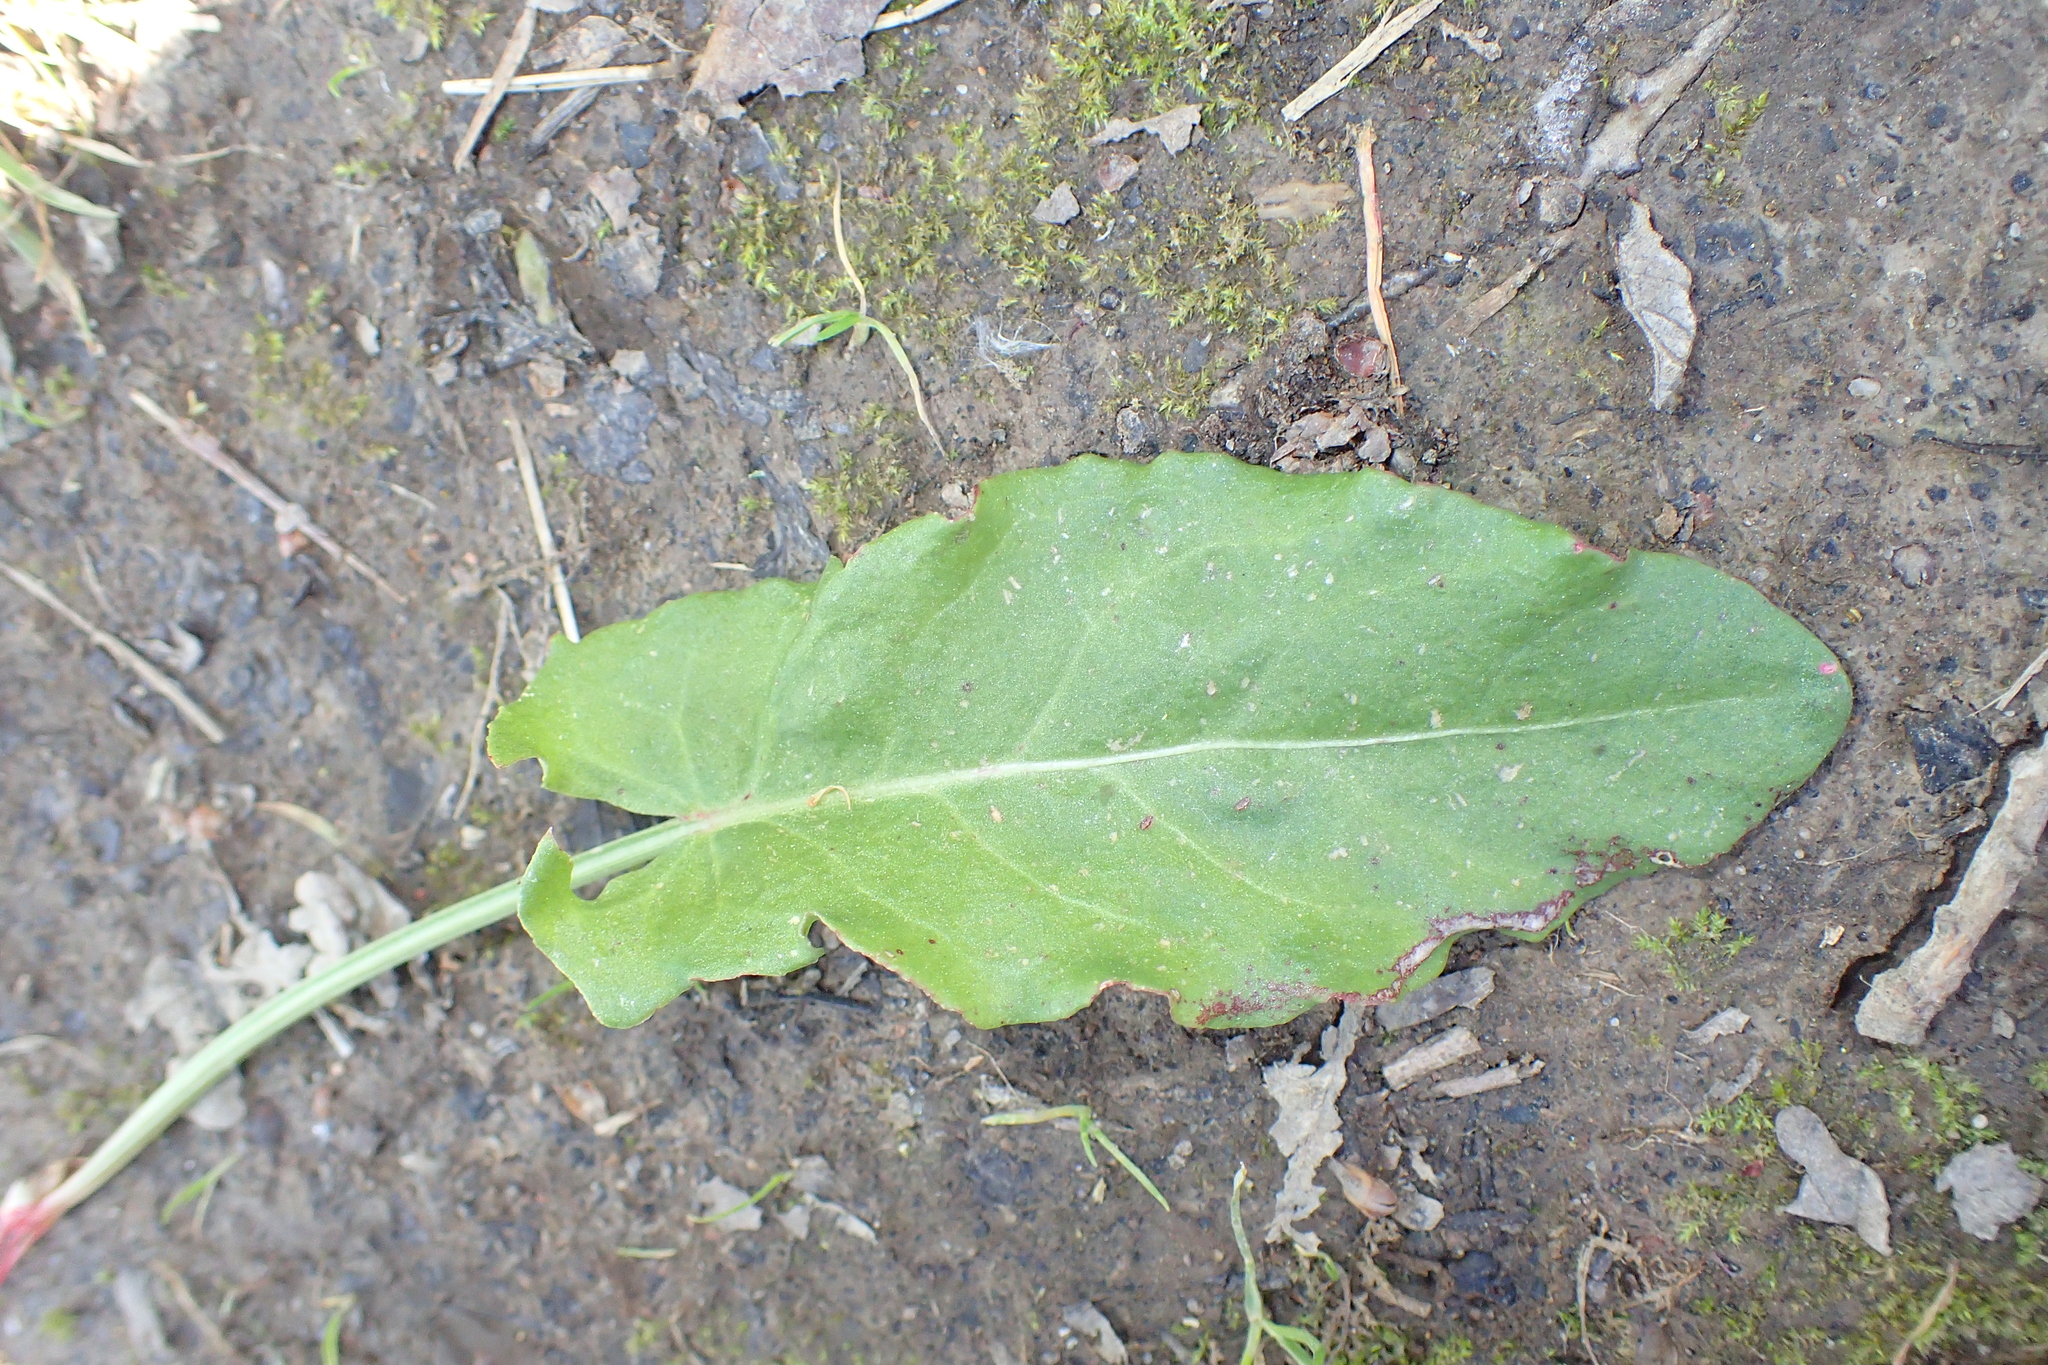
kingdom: Plantae
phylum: Tracheophyta
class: Magnoliopsida
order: Caryophyllales
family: Polygonaceae
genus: Rumex
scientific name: Rumex acetosa
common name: Garden sorrel
